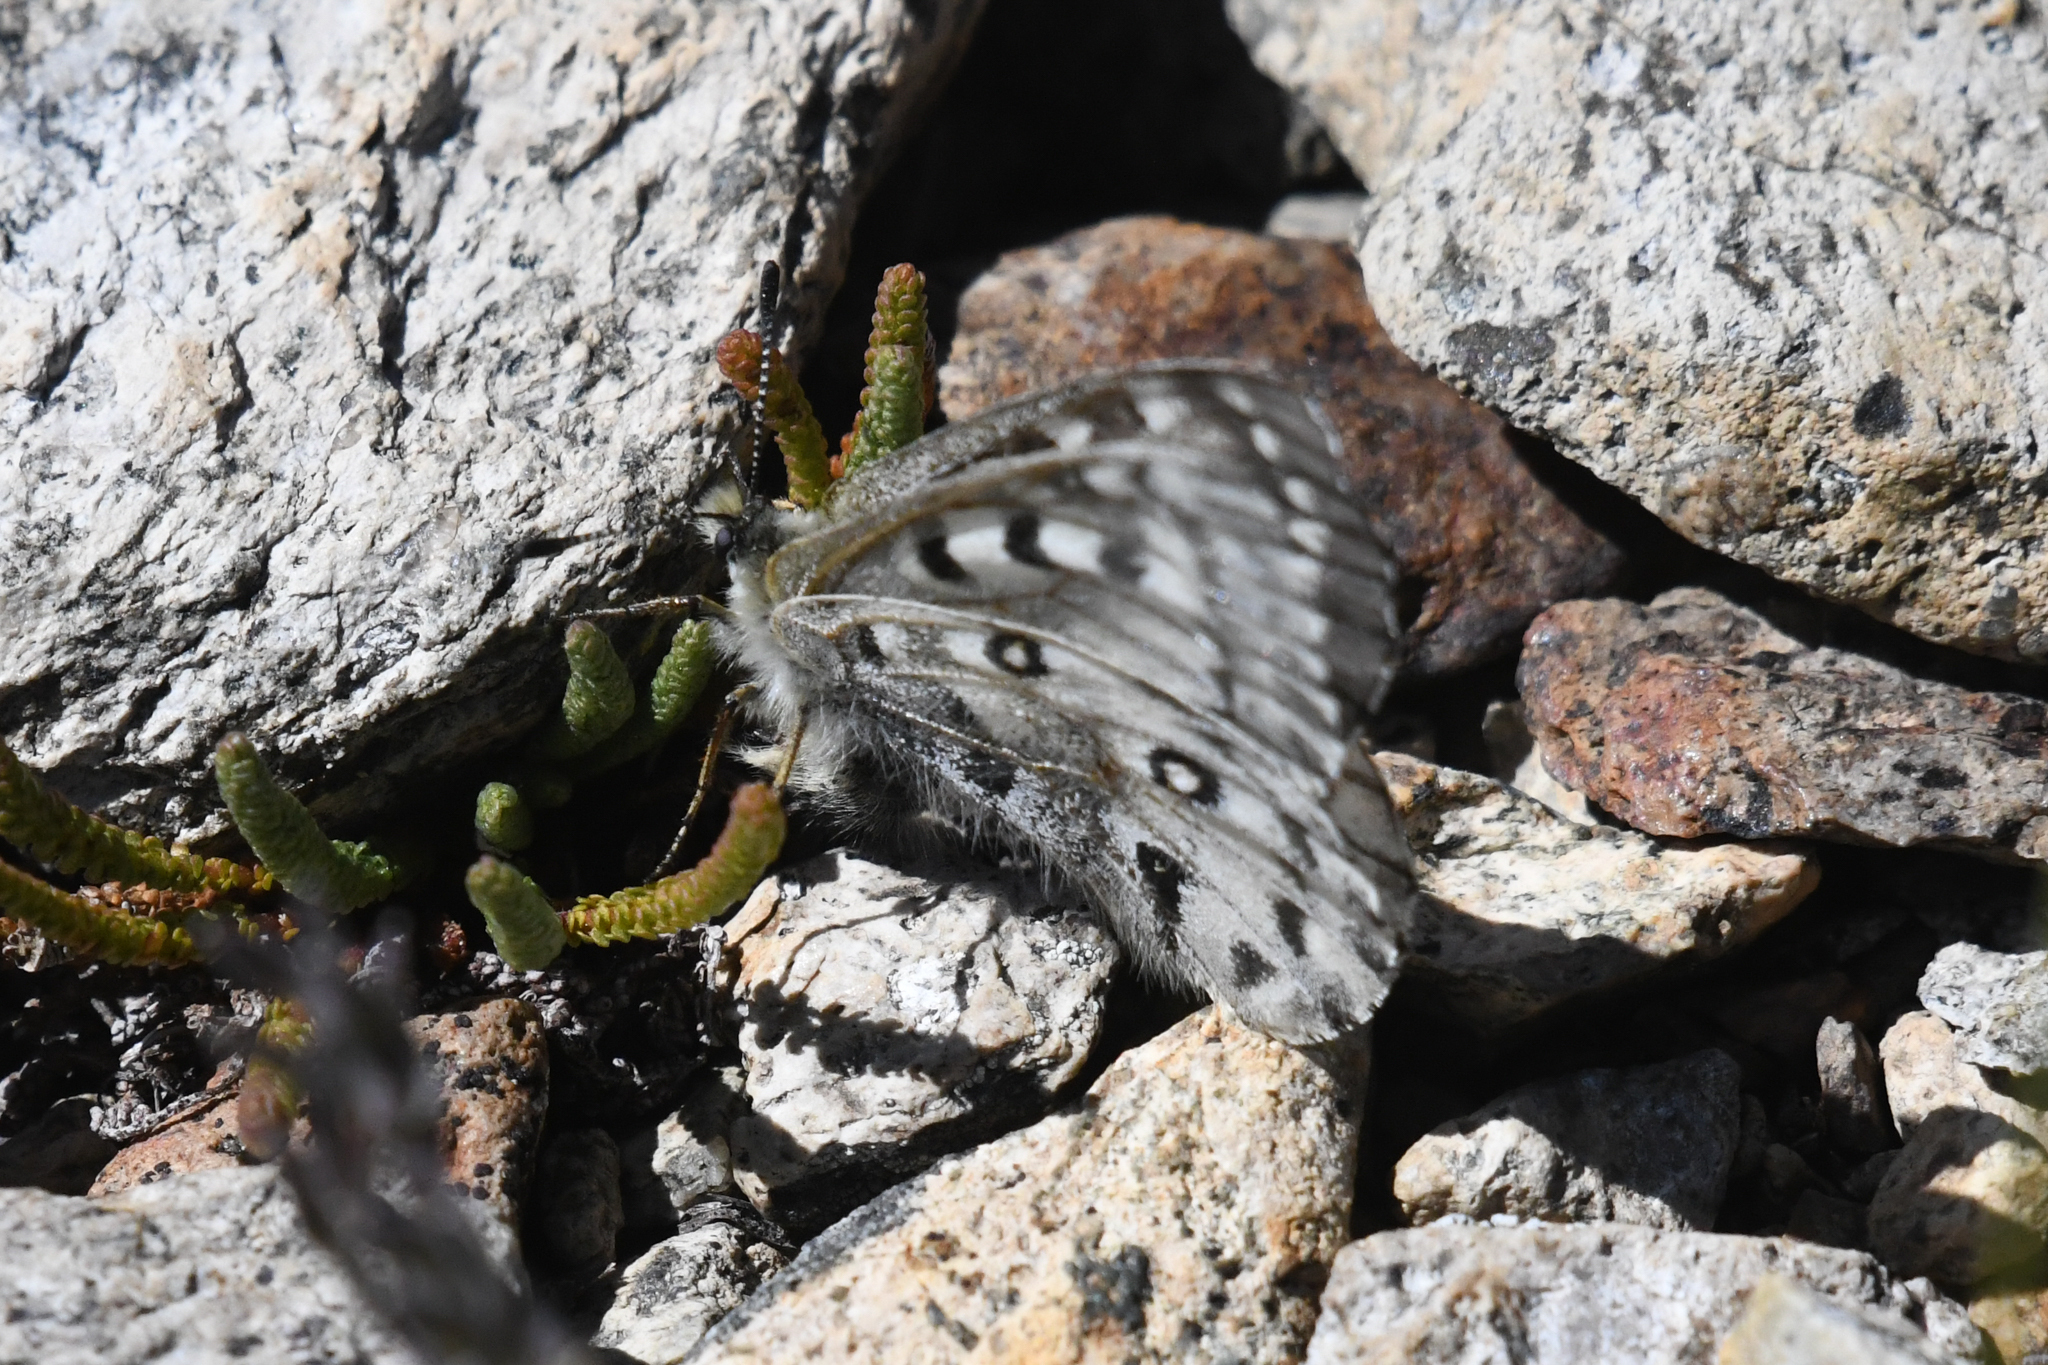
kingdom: Animalia
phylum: Arthropoda
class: Insecta
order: Lepidoptera
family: Papilionidae
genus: Parnassius
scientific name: Parnassius smintheus
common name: Mountain parnassian
